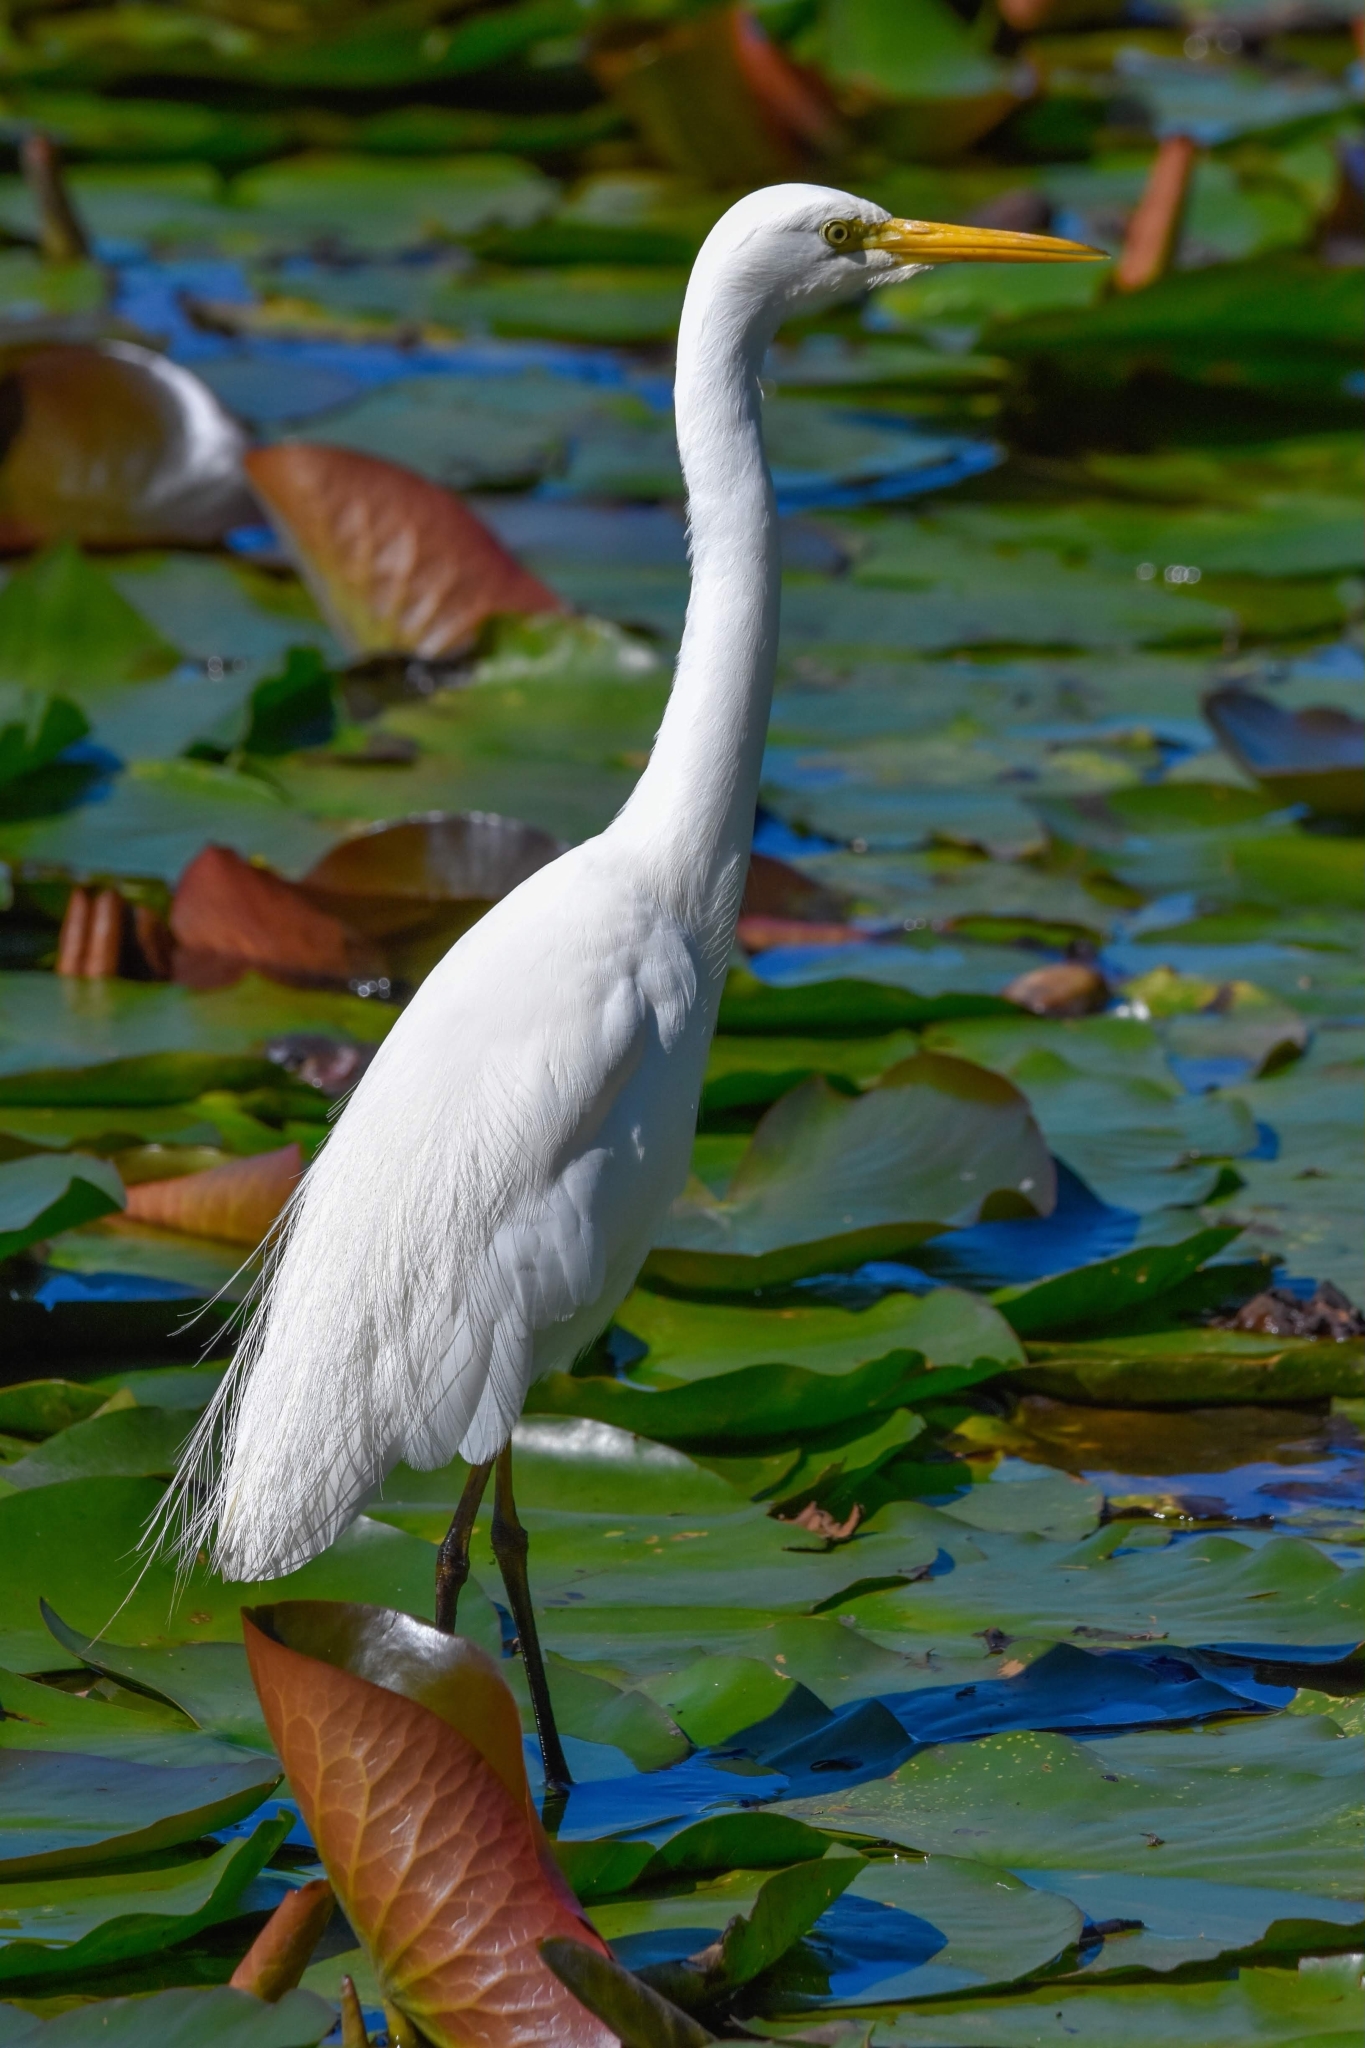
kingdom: Animalia
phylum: Chordata
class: Aves
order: Pelecaniformes
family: Ardeidae
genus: Egretta
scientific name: Egretta intermedia
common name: Intermediate egret
